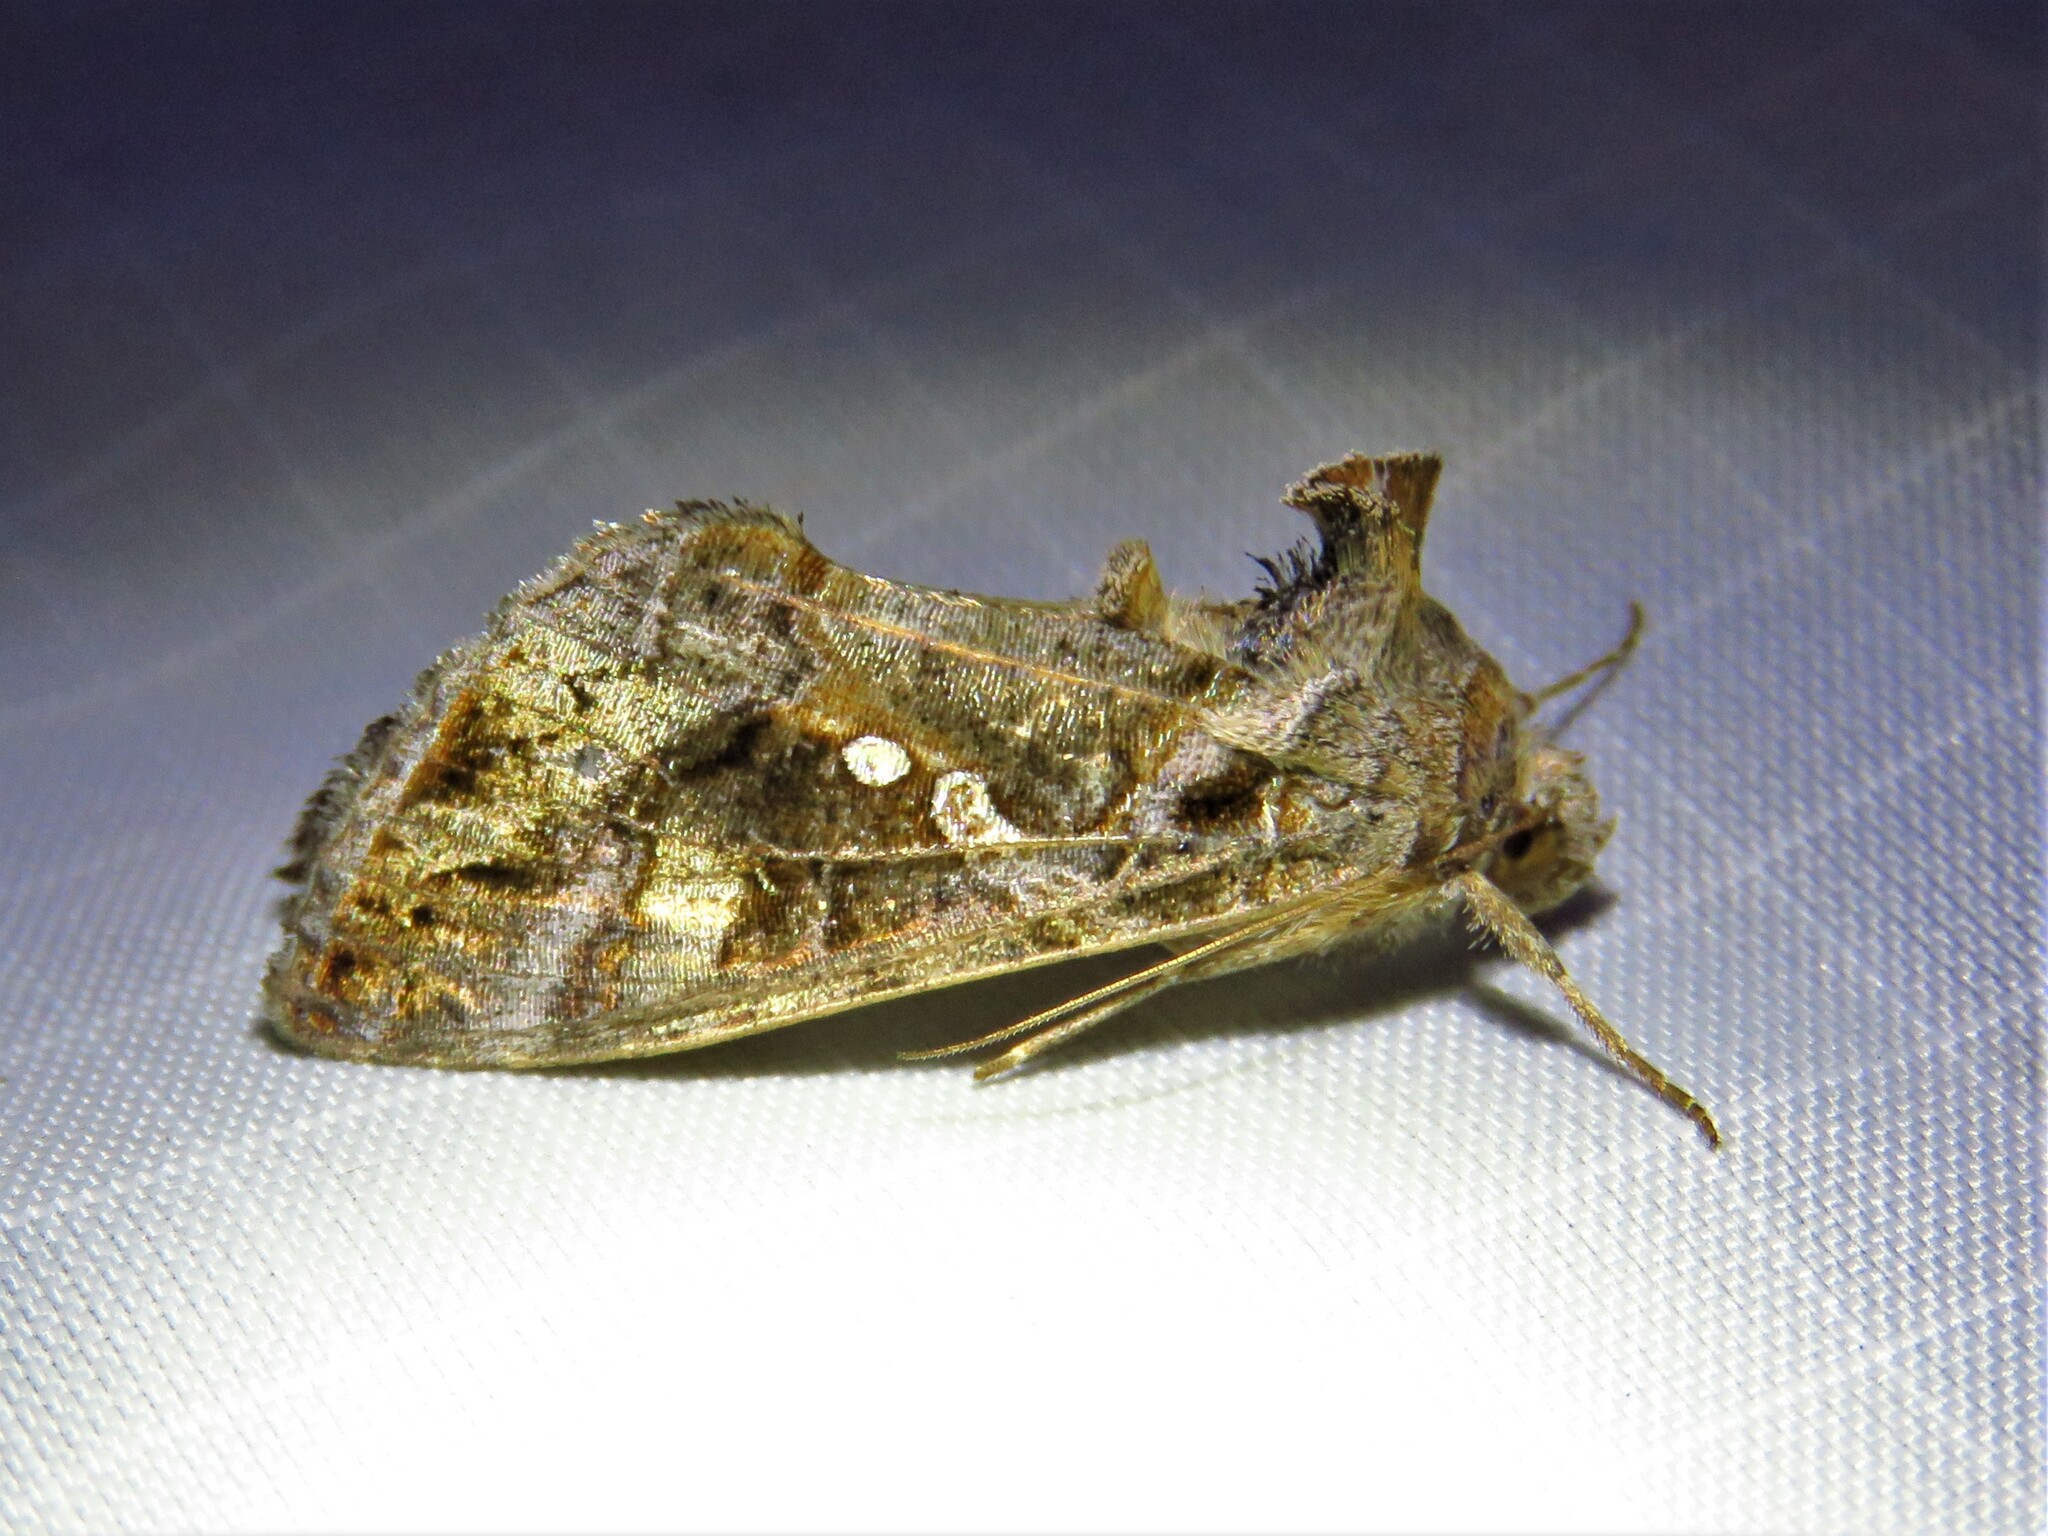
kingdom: Animalia
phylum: Arthropoda
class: Insecta
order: Lepidoptera
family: Noctuidae
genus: Chrysodeixis
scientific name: Chrysodeixis includens
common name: Cutworm moth
